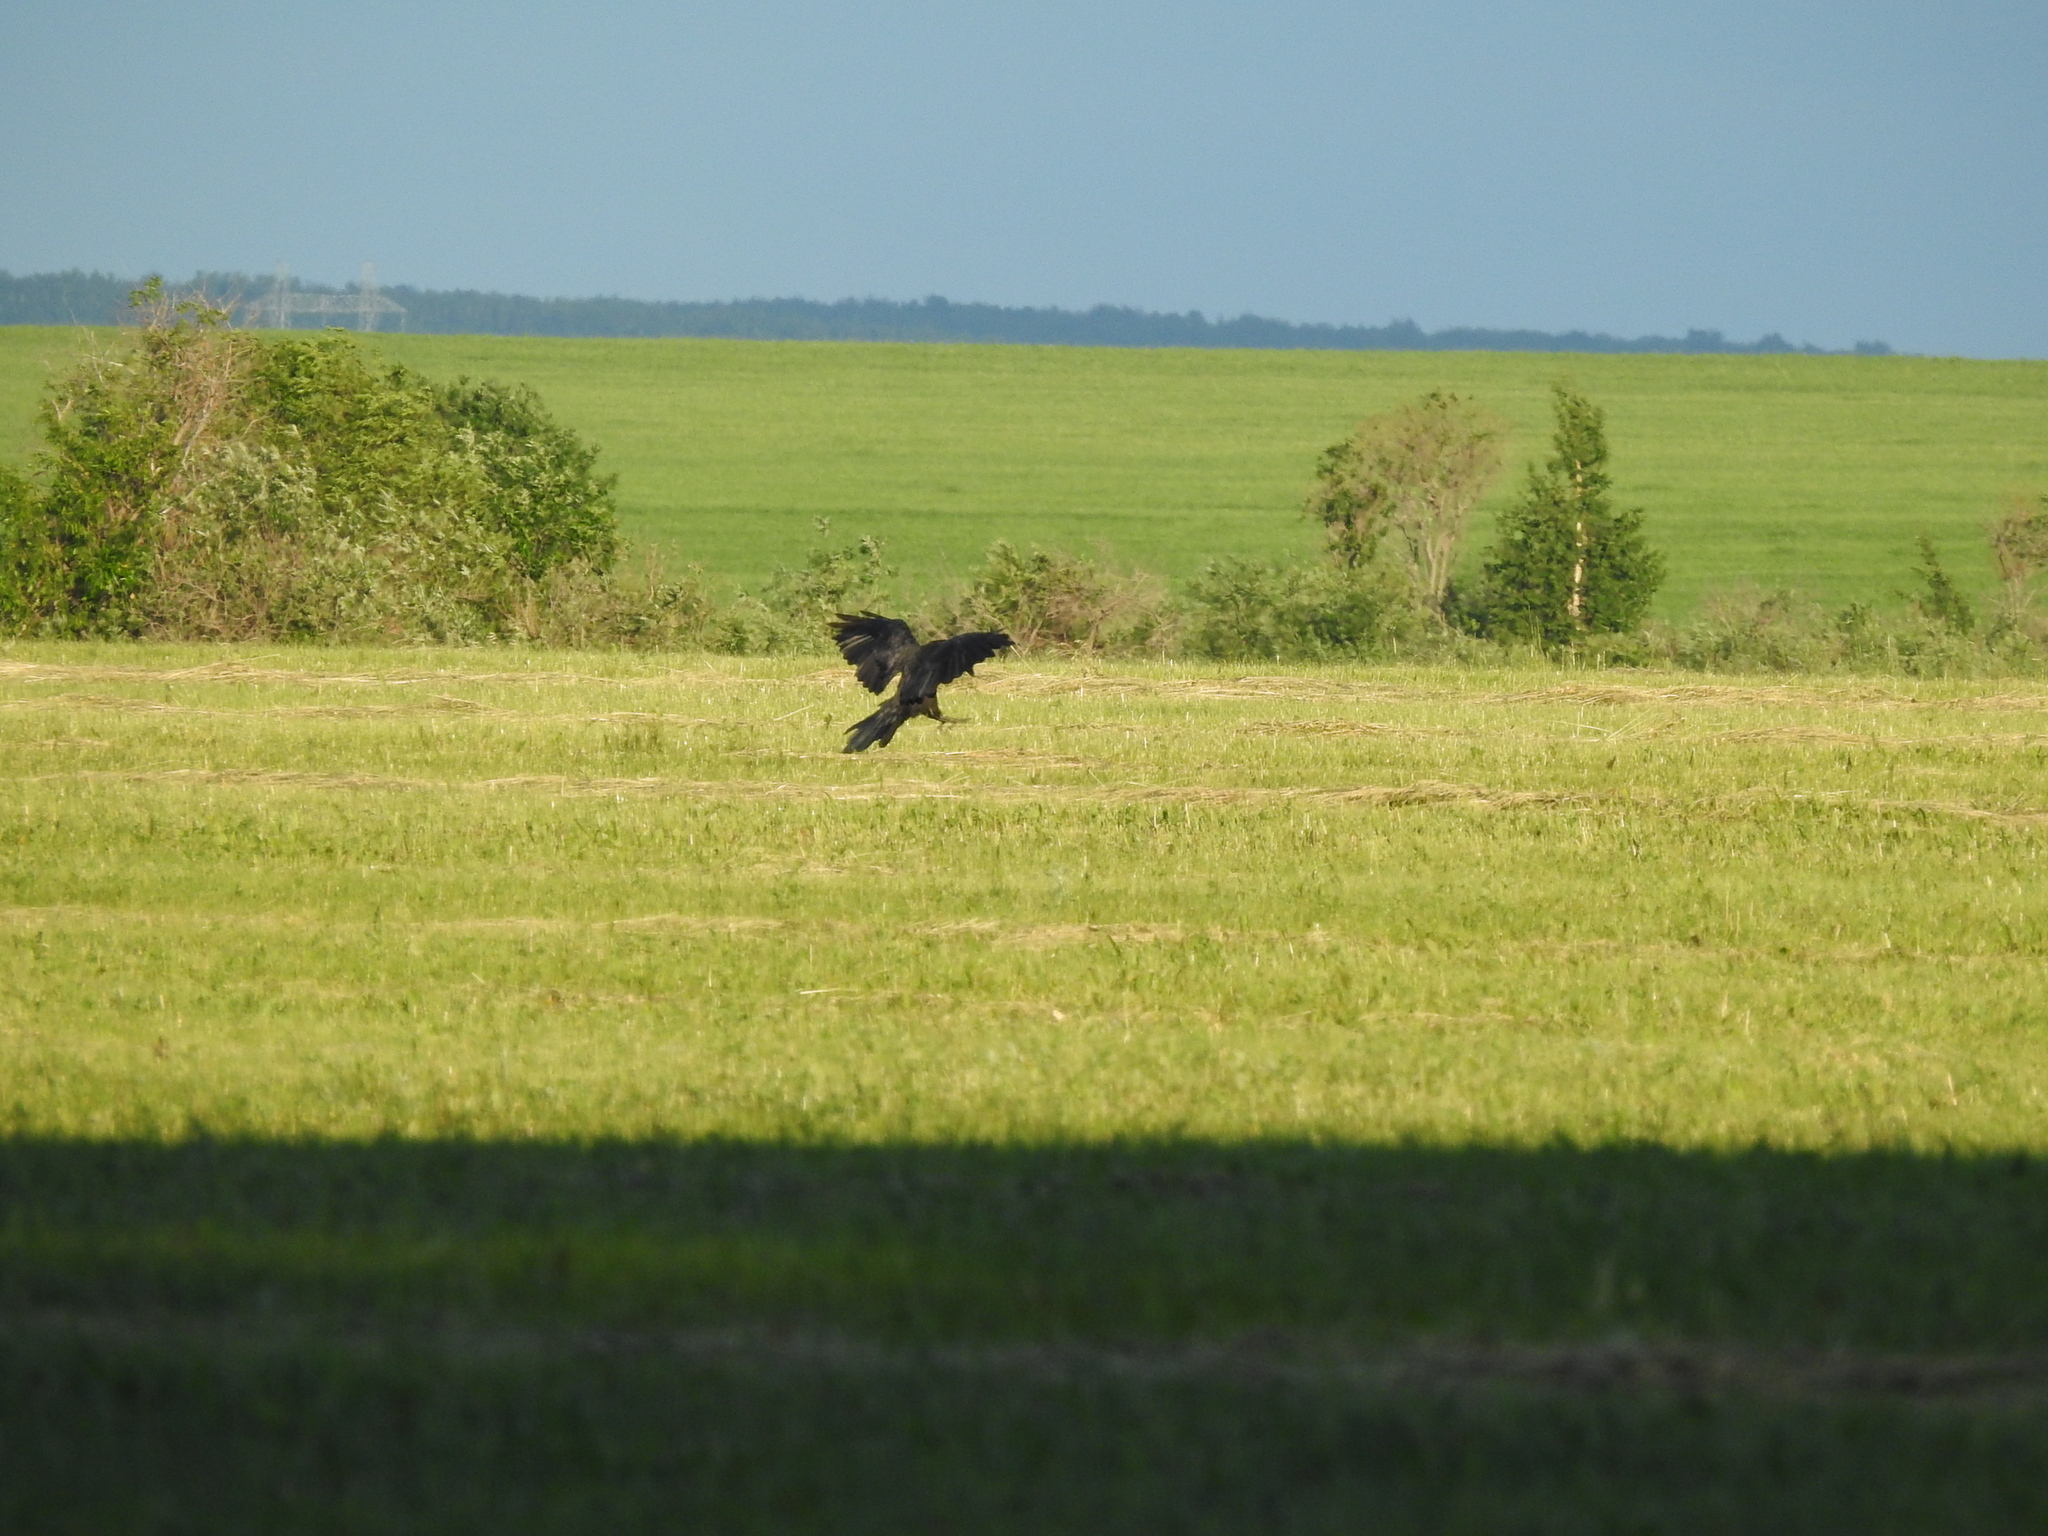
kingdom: Animalia
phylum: Chordata
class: Aves
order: Passeriformes
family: Corvidae
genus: Corvus
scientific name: Corvus corax
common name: Common raven
